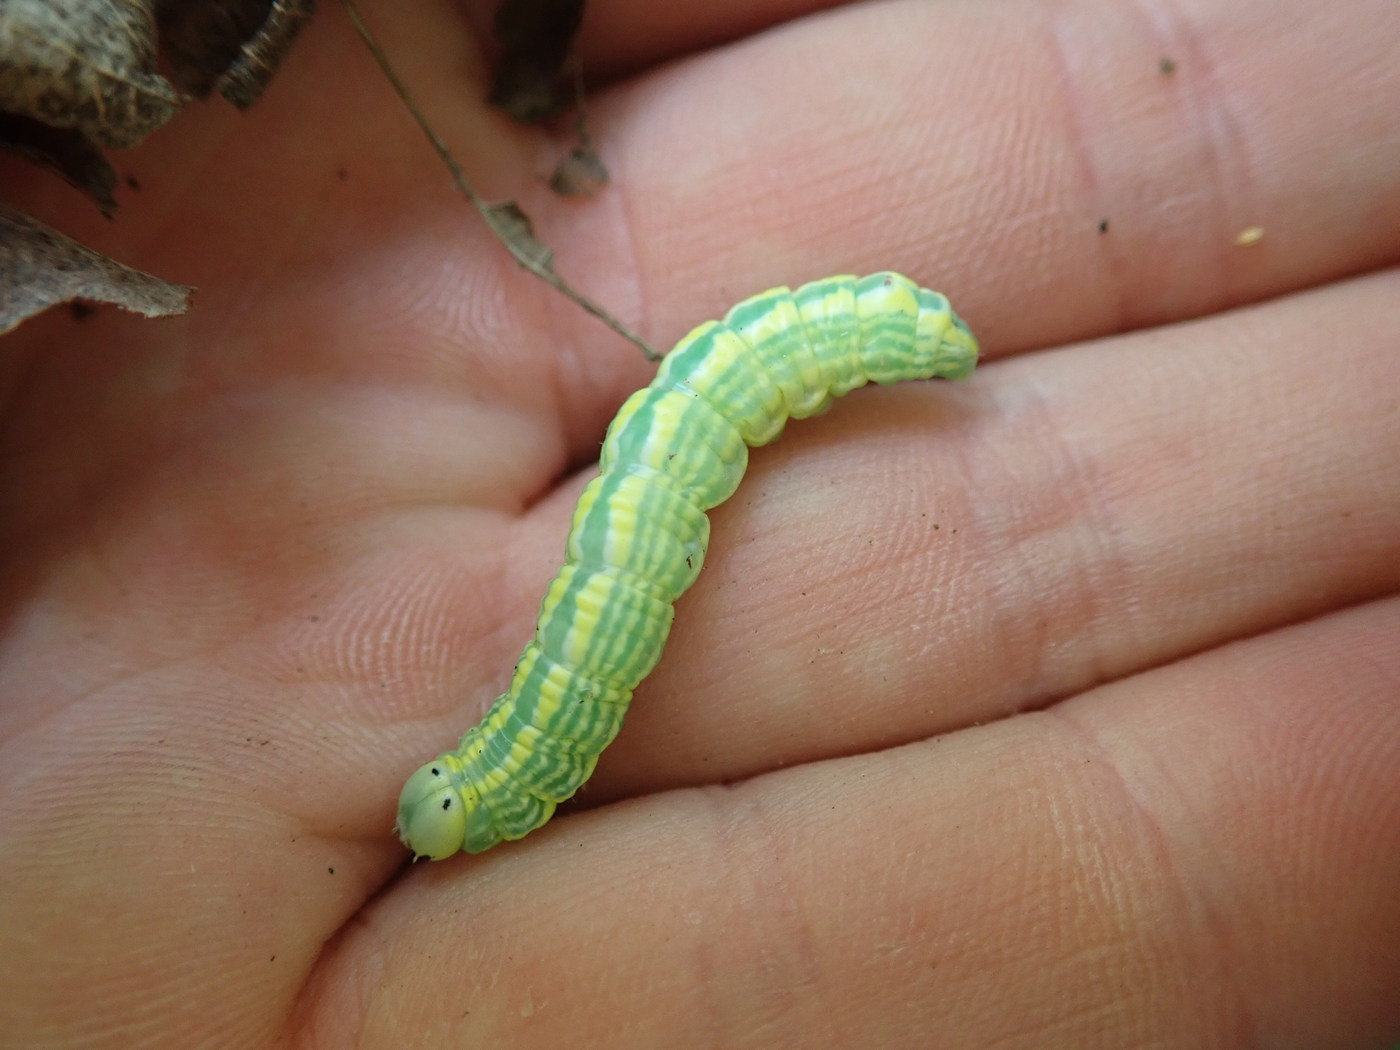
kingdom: Animalia
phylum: Arthropoda
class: Insecta
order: Lepidoptera
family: Notodontidae
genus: Ellida
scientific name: Ellida caniplaga
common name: Linden prominent
